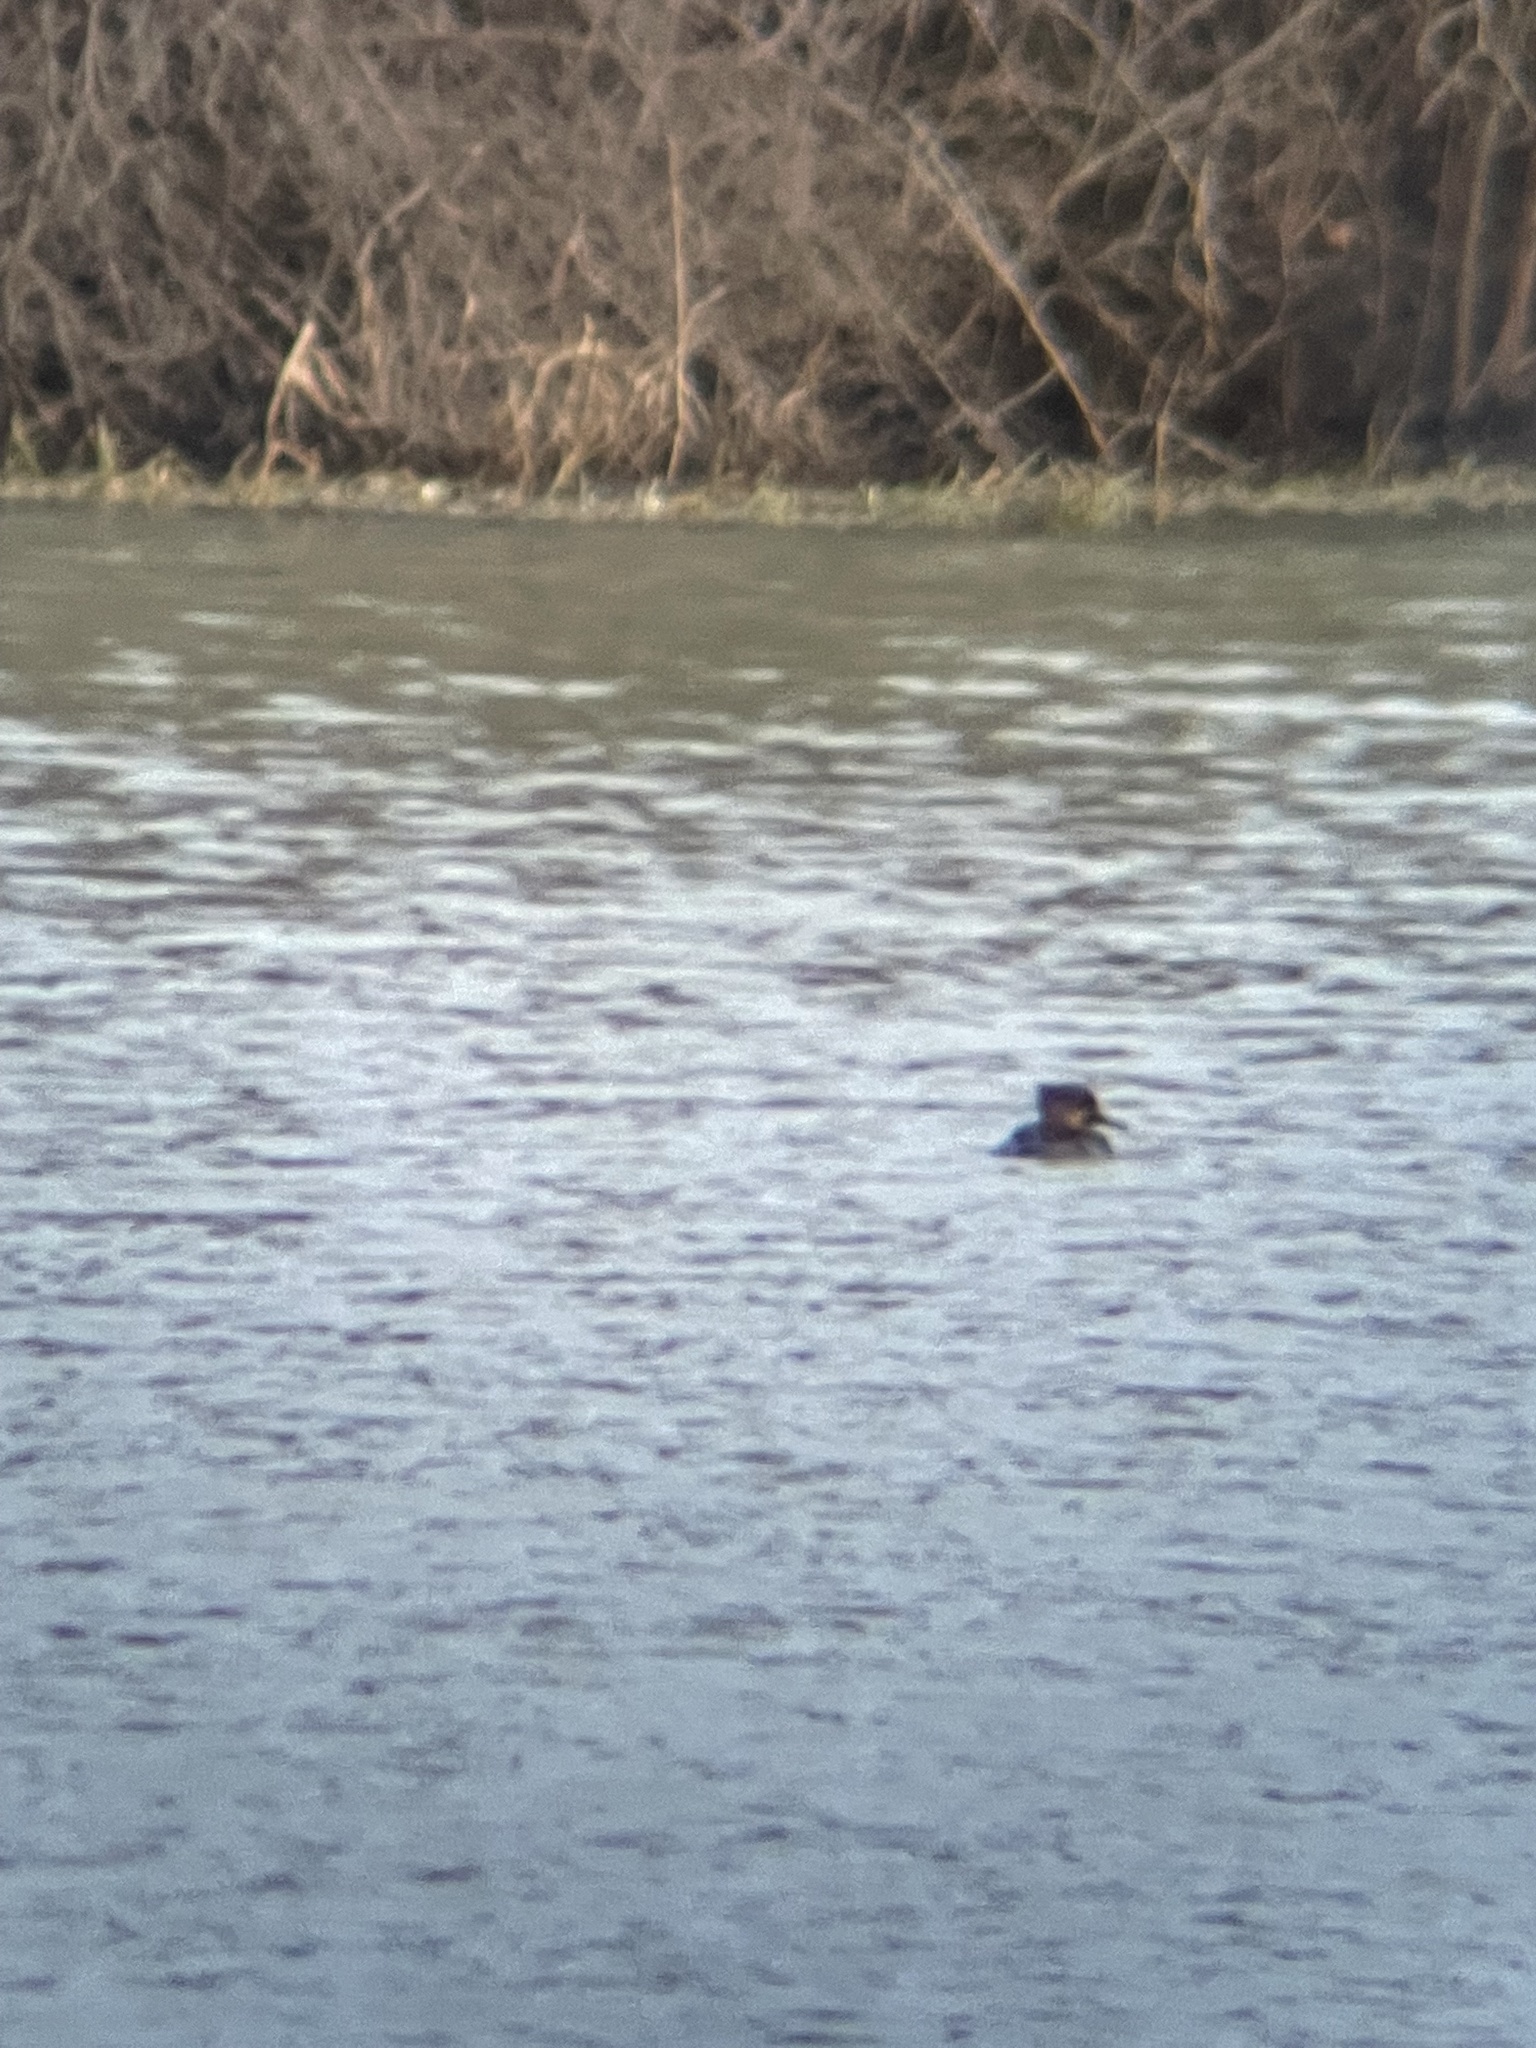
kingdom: Animalia
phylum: Chordata
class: Aves
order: Anseriformes
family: Anatidae
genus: Lophodytes
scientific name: Lophodytes cucullatus
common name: Hooded merganser
